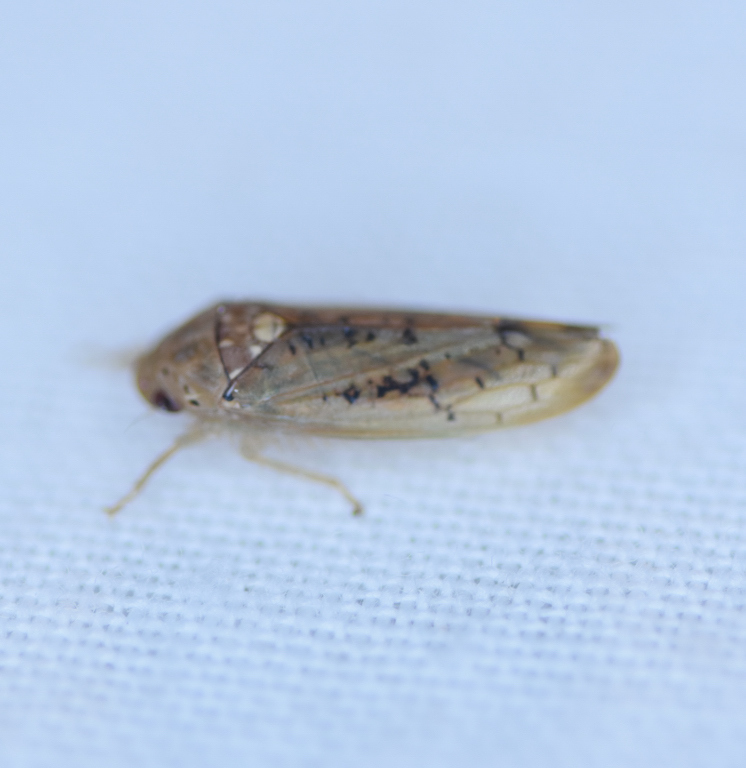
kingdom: Animalia
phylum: Arthropoda
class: Insecta
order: Hemiptera
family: Cicadellidae
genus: Ponana
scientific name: Ponana quadralaba
